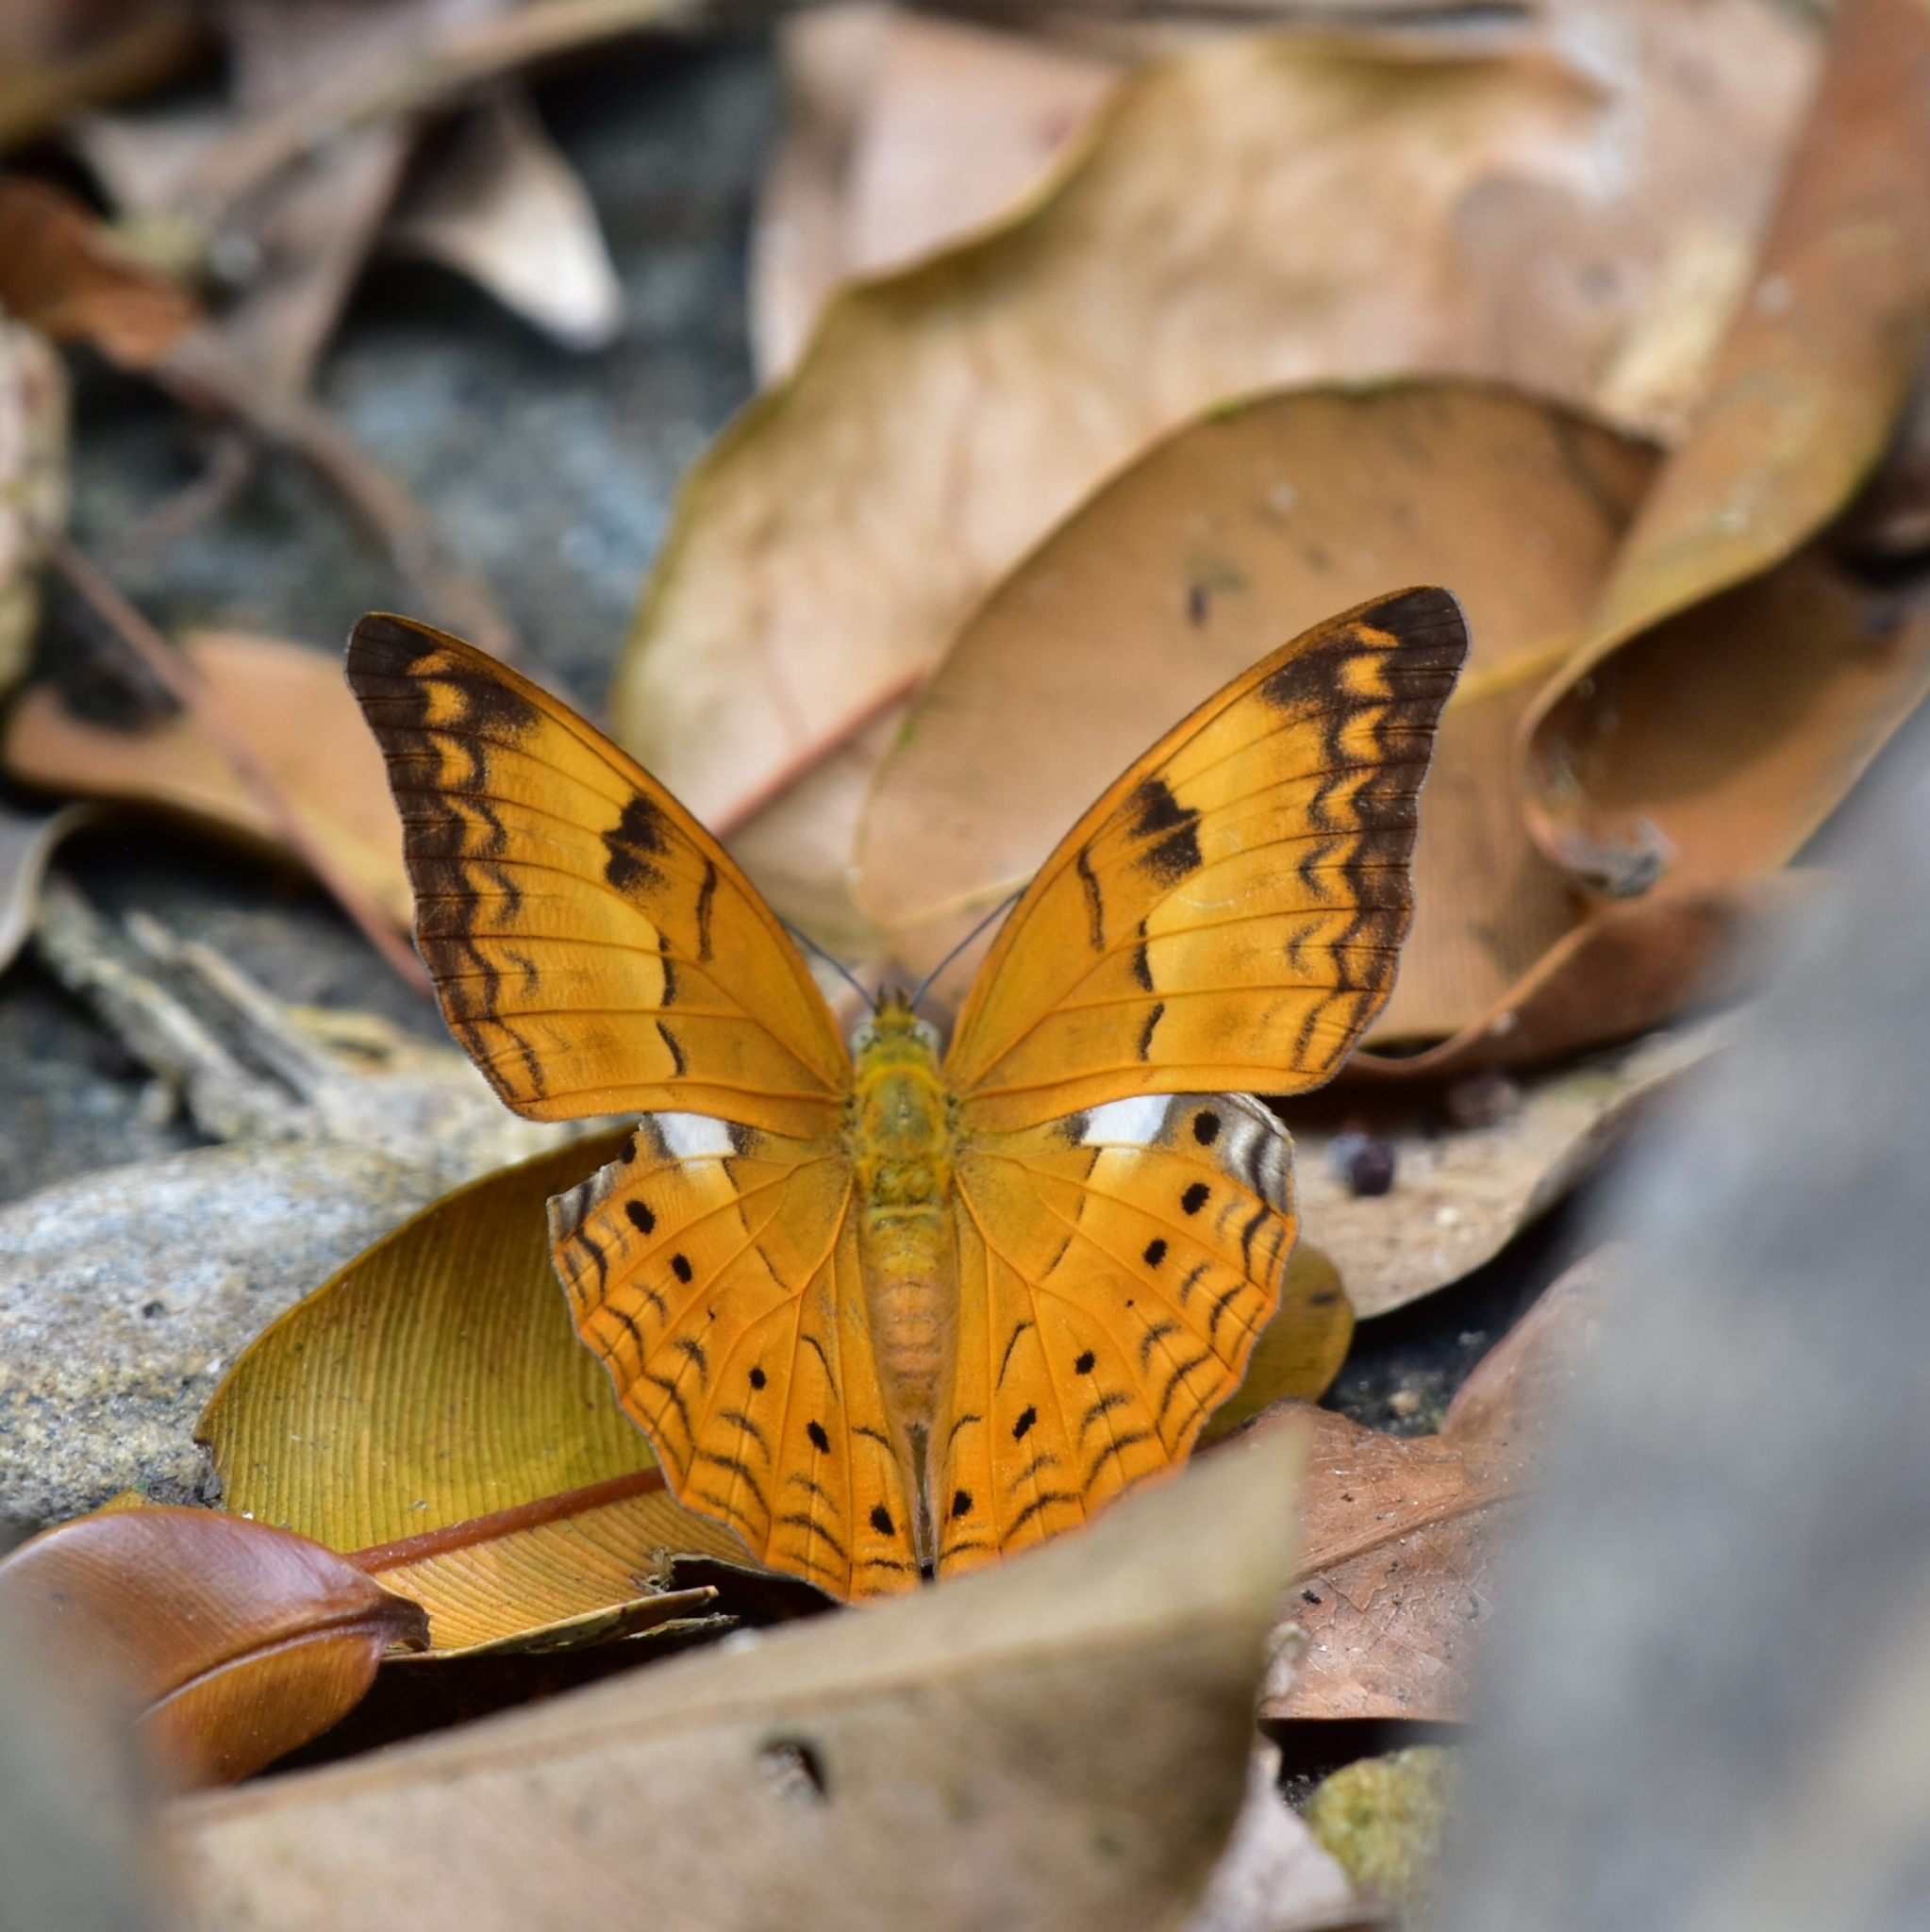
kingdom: Animalia
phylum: Arthropoda
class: Insecta
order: Lepidoptera
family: Nymphalidae
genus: Cirrochroa
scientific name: Cirrochroa thais
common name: Tamil yeoman
